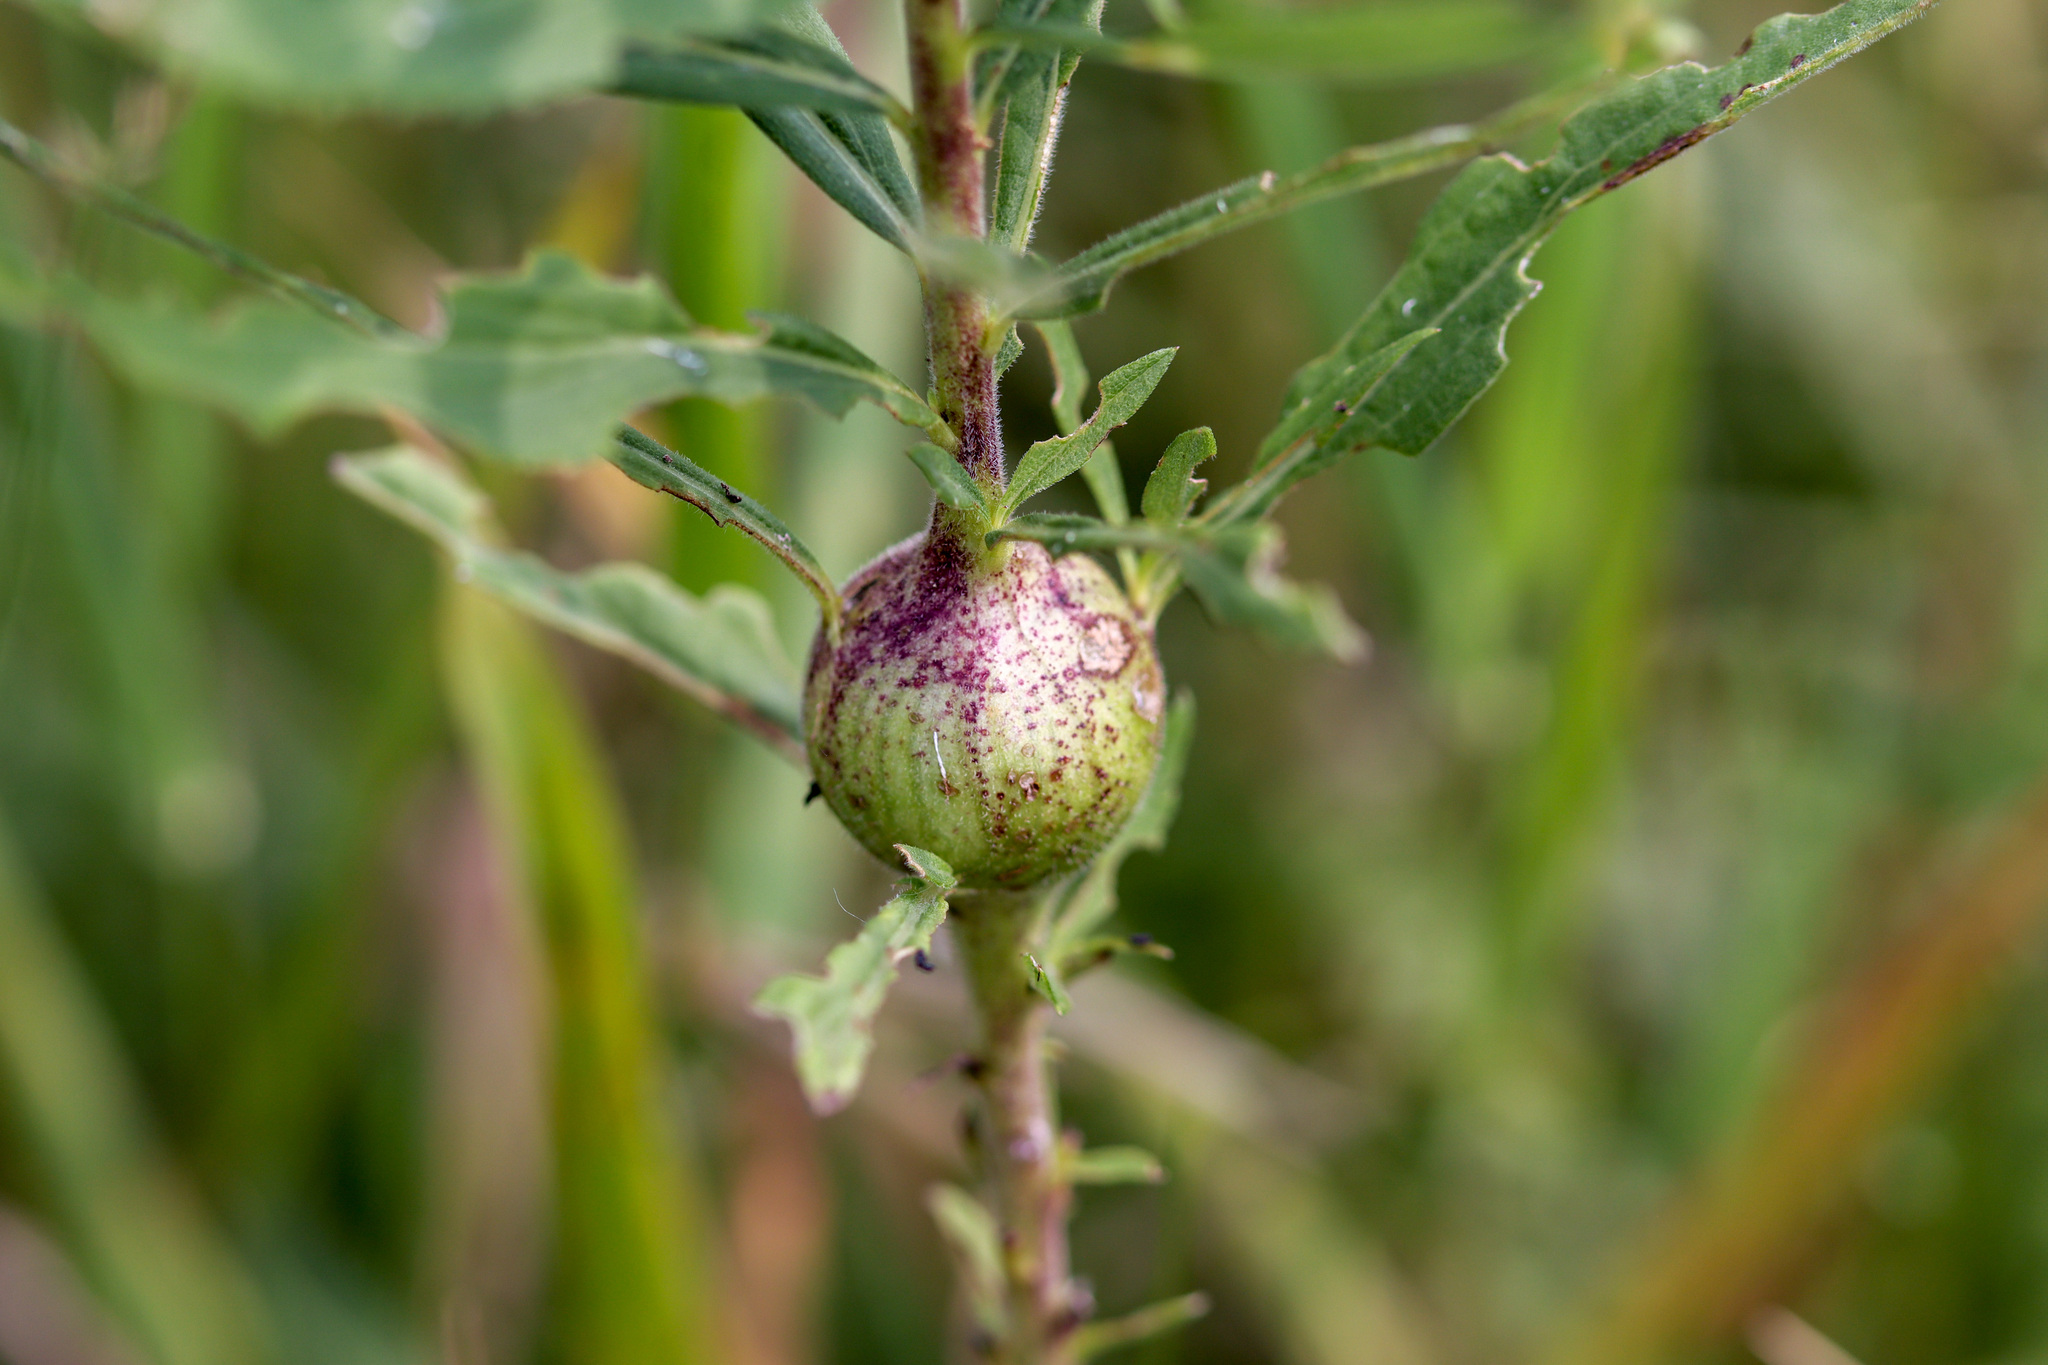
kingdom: Animalia
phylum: Arthropoda
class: Insecta
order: Diptera
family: Tephritidae
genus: Eurosta
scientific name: Eurosta solidaginis
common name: Goldenrod gall fly
